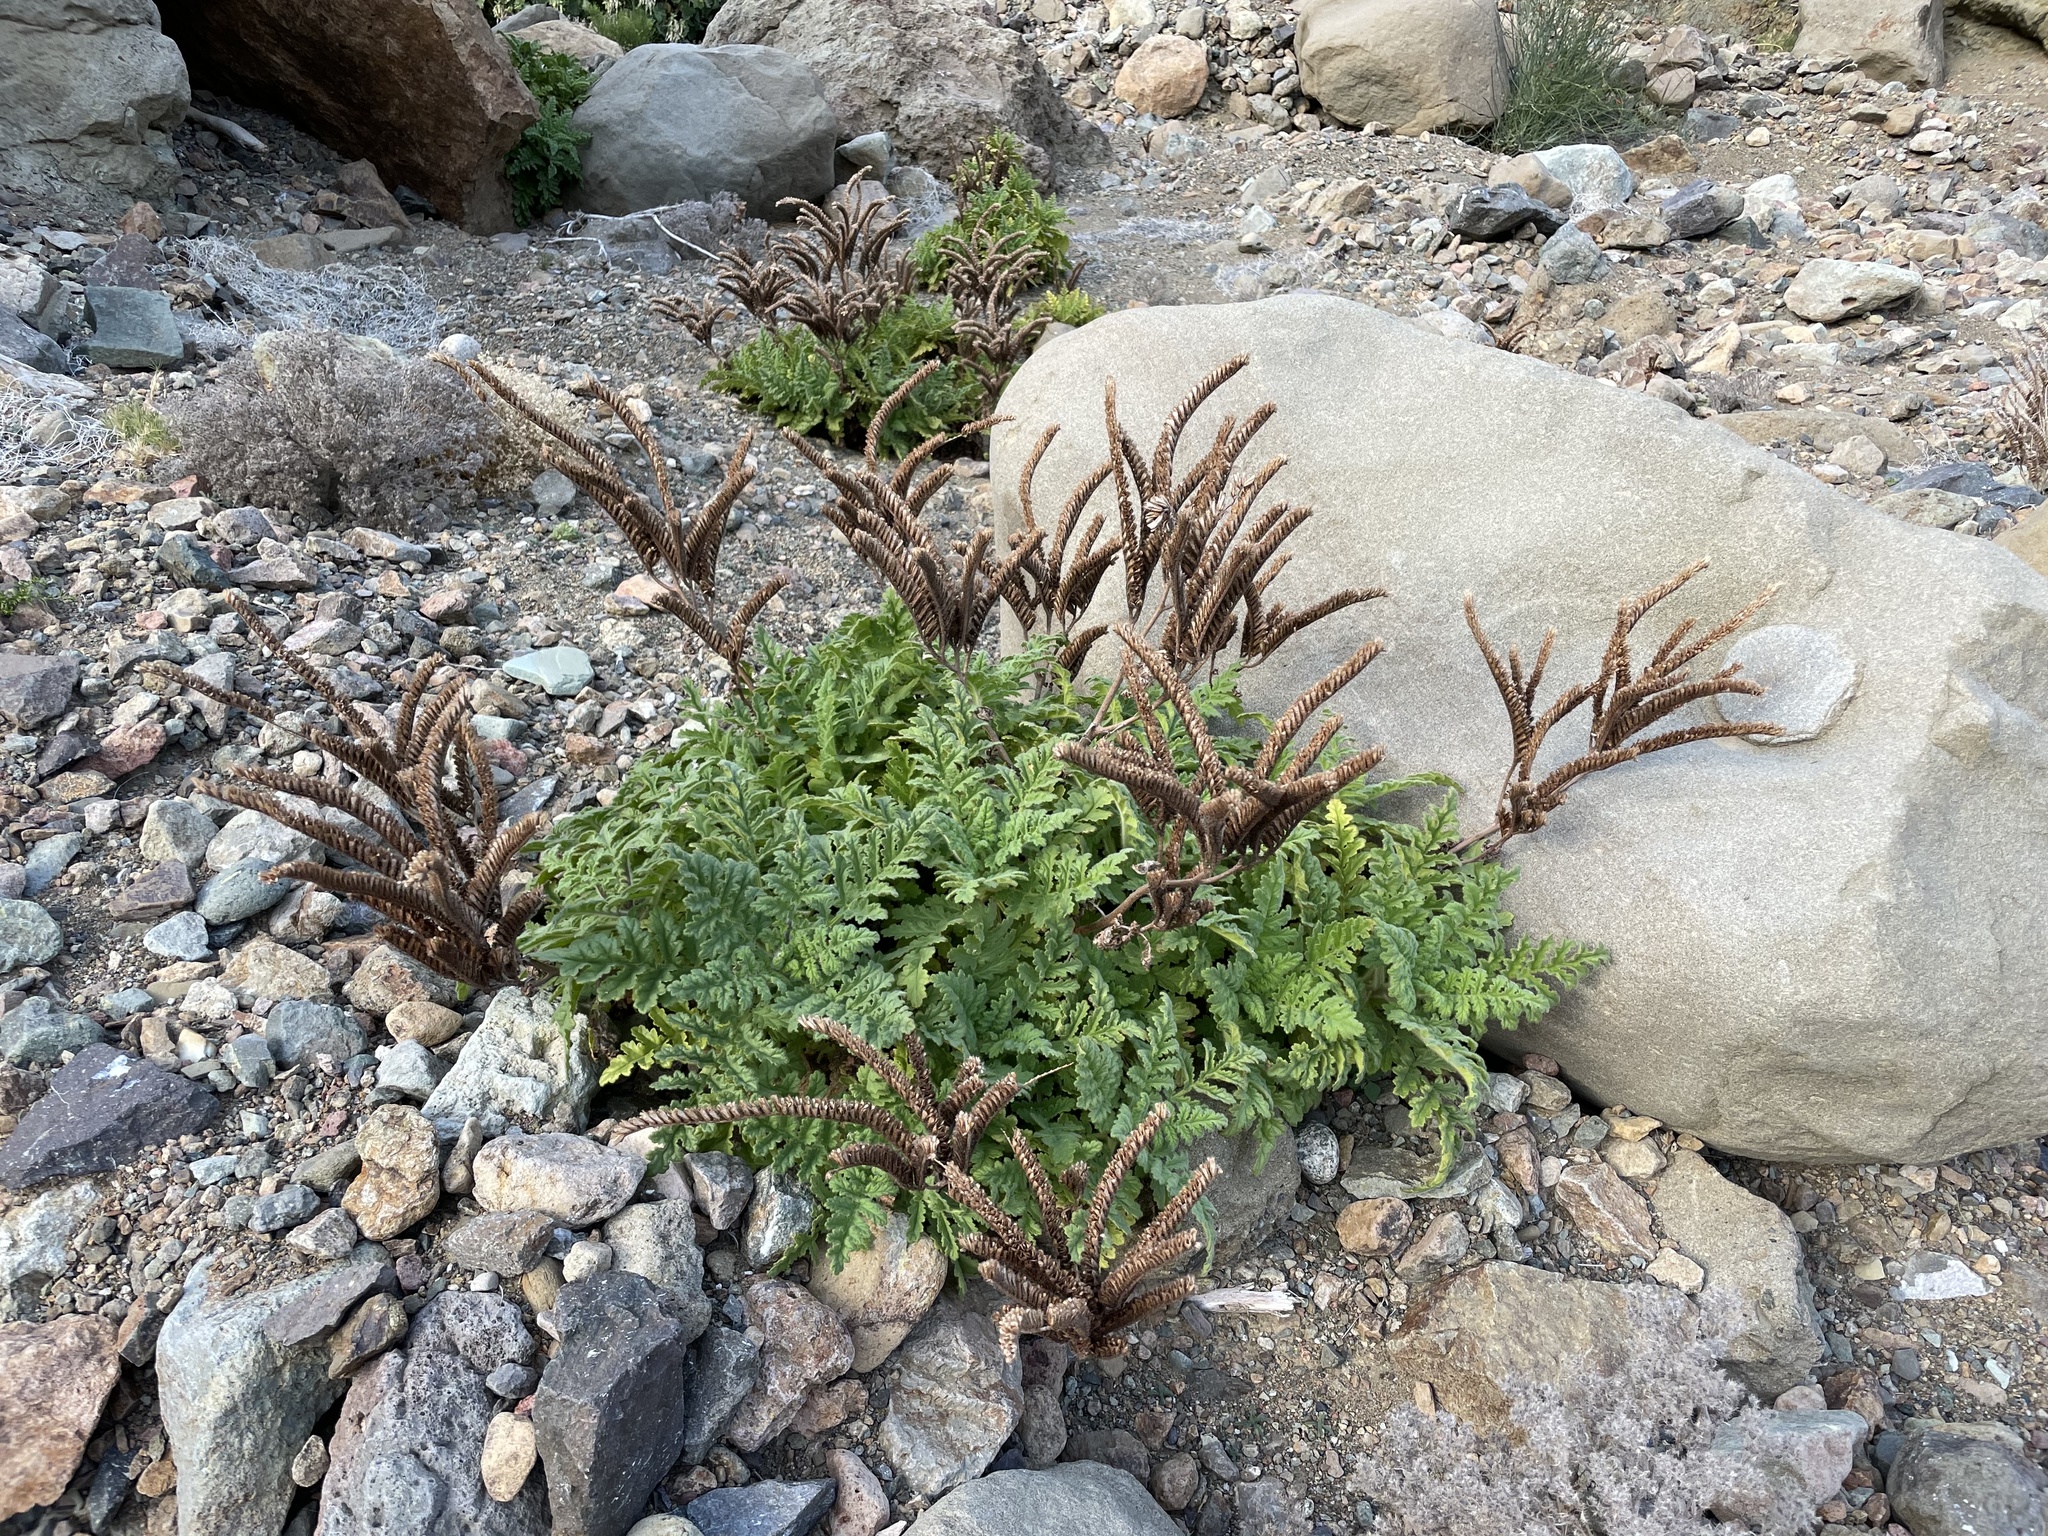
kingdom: Plantae
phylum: Tracheophyta
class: Magnoliopsida
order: Boraginales
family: Hydrophyllaceae
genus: Phacelia
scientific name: Phacelia ixodes
